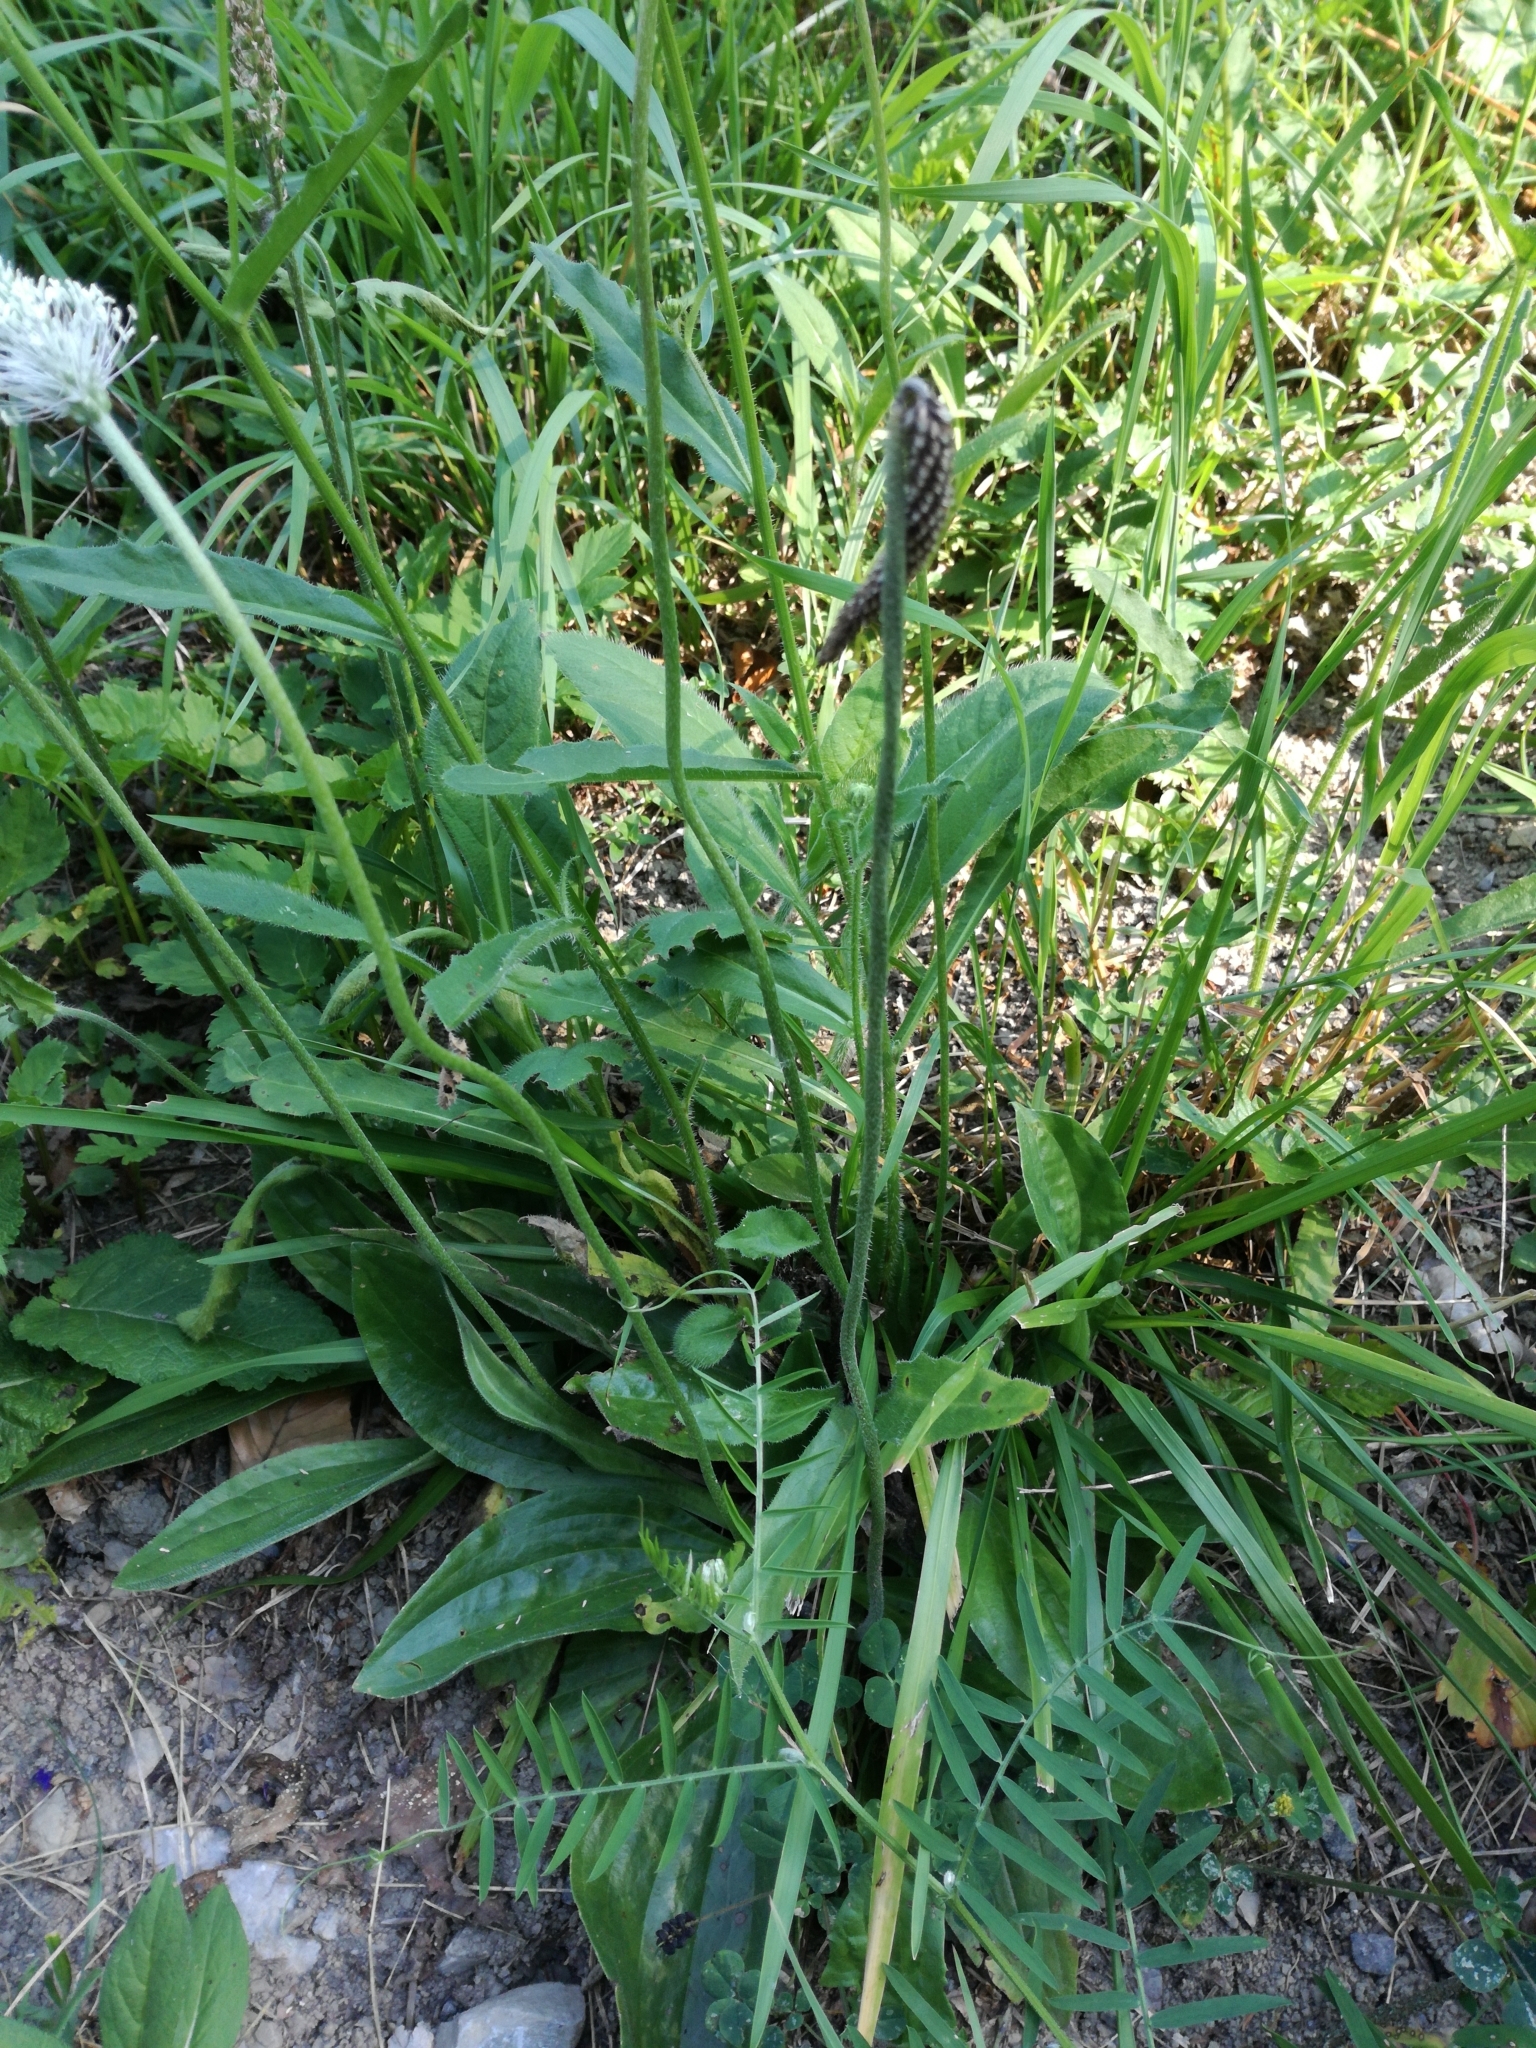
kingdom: Plantae
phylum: Tracheophyta
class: Magnoliopsida
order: Lamiales
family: Plantaginaceae
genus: Plantago
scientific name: Plantago media
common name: Hoary plantain
